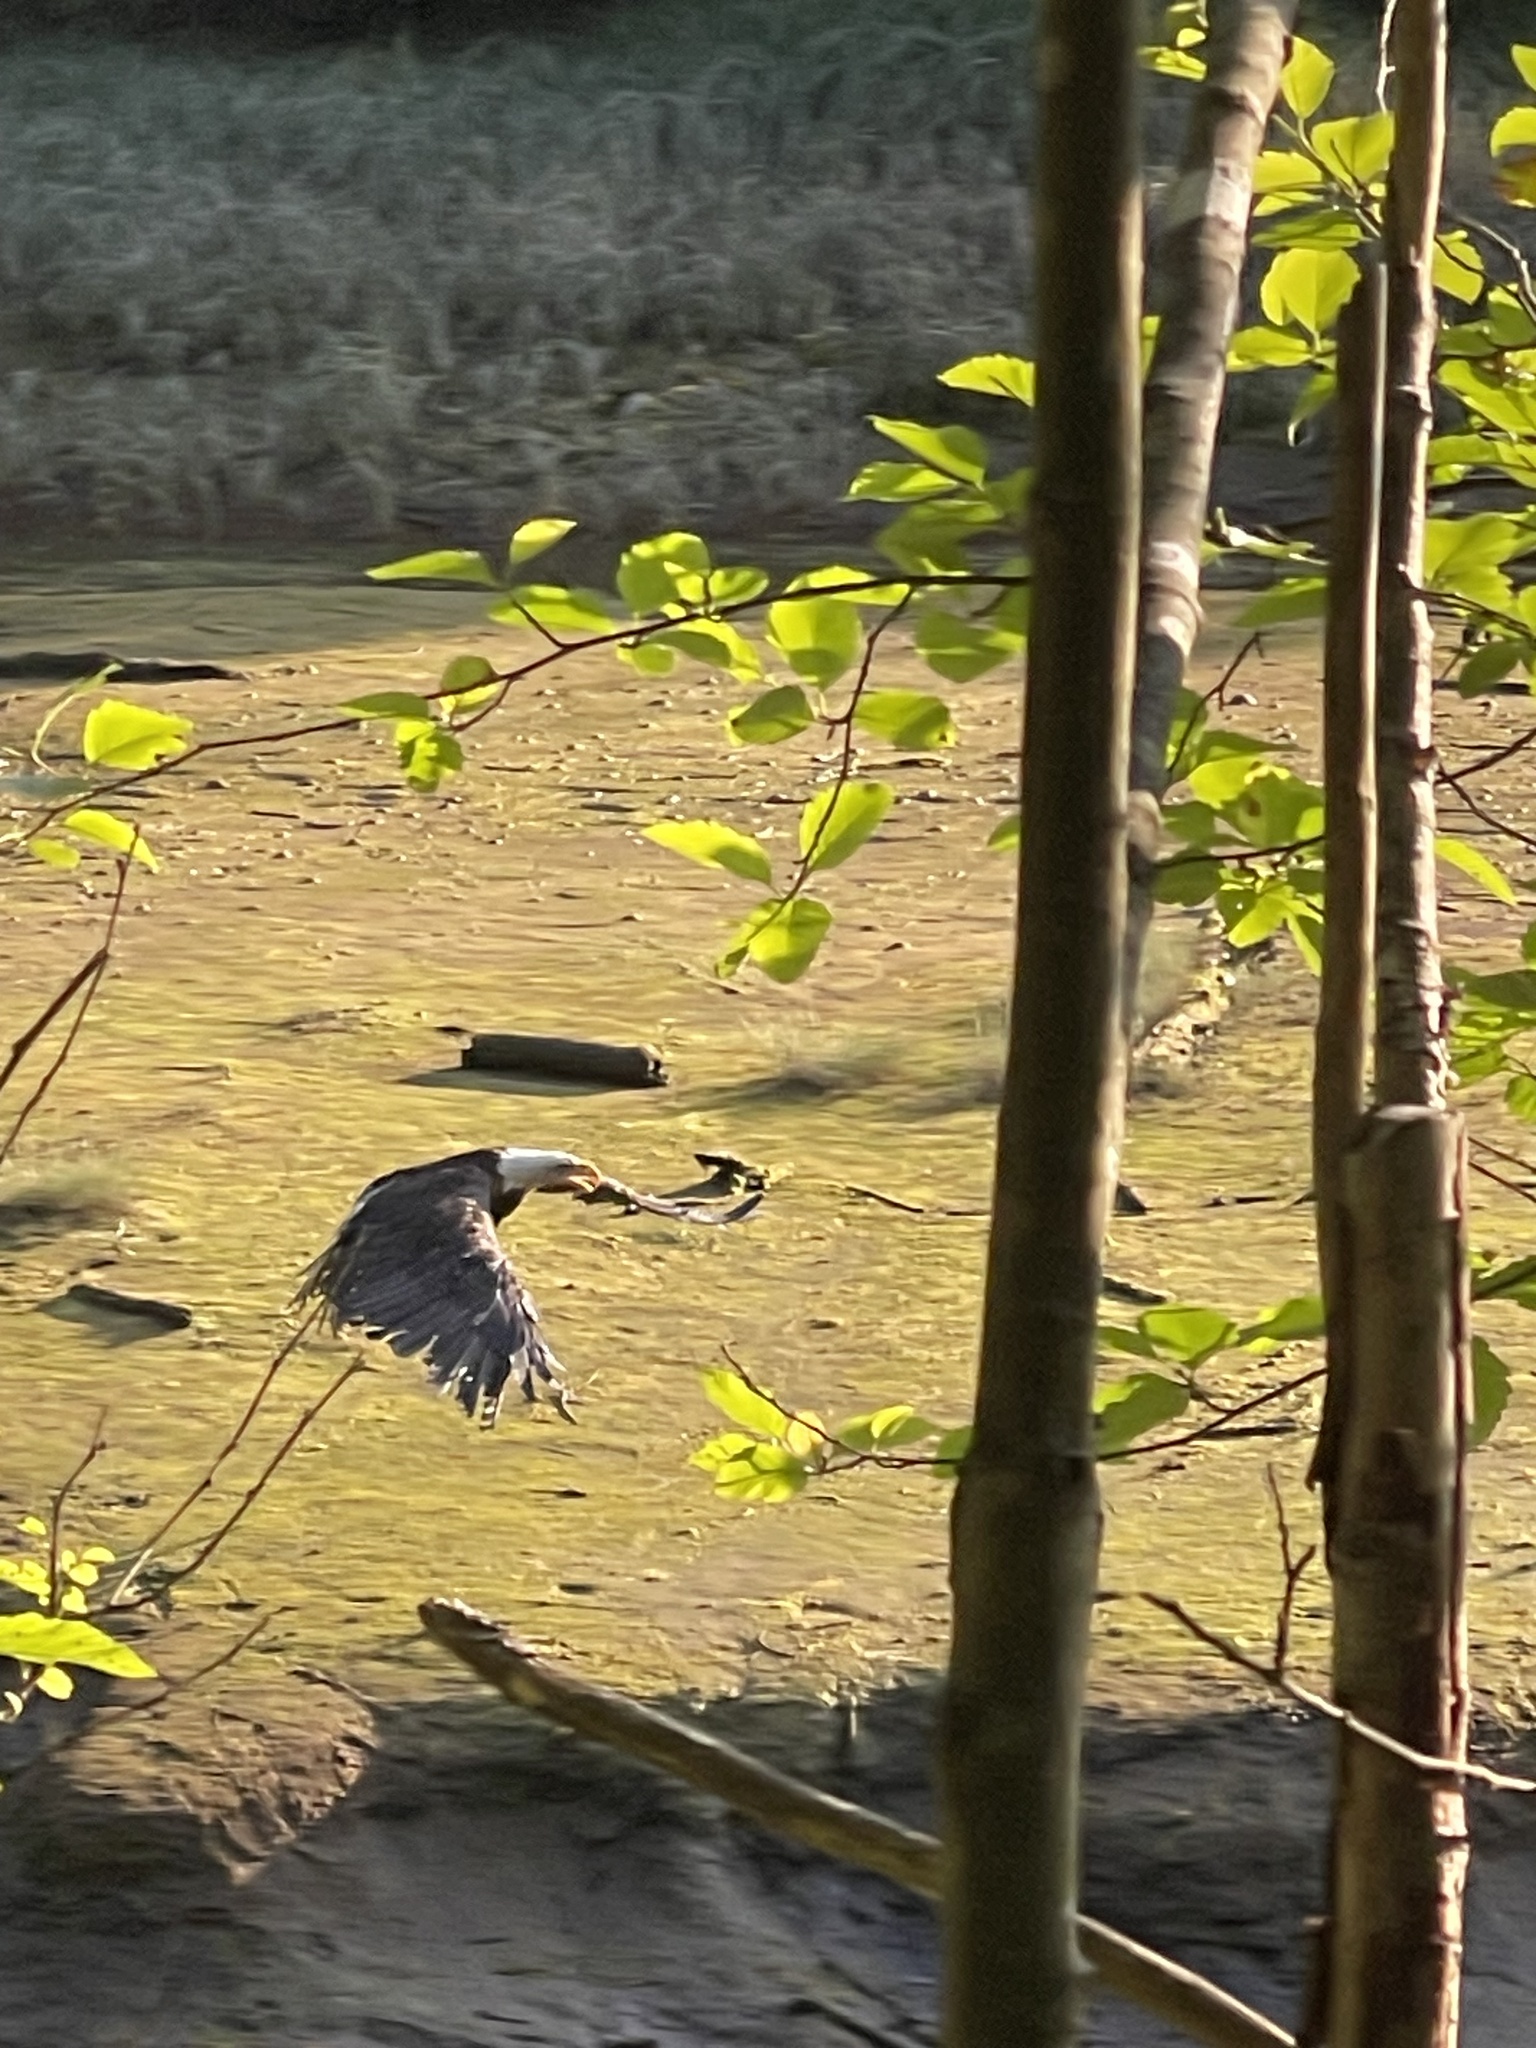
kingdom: Animalia
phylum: Chordata
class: Aves
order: Accipitriformes
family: Accipitridae
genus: Haliaeetus
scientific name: Haliaeetus leucocephalus
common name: Bald eagle
